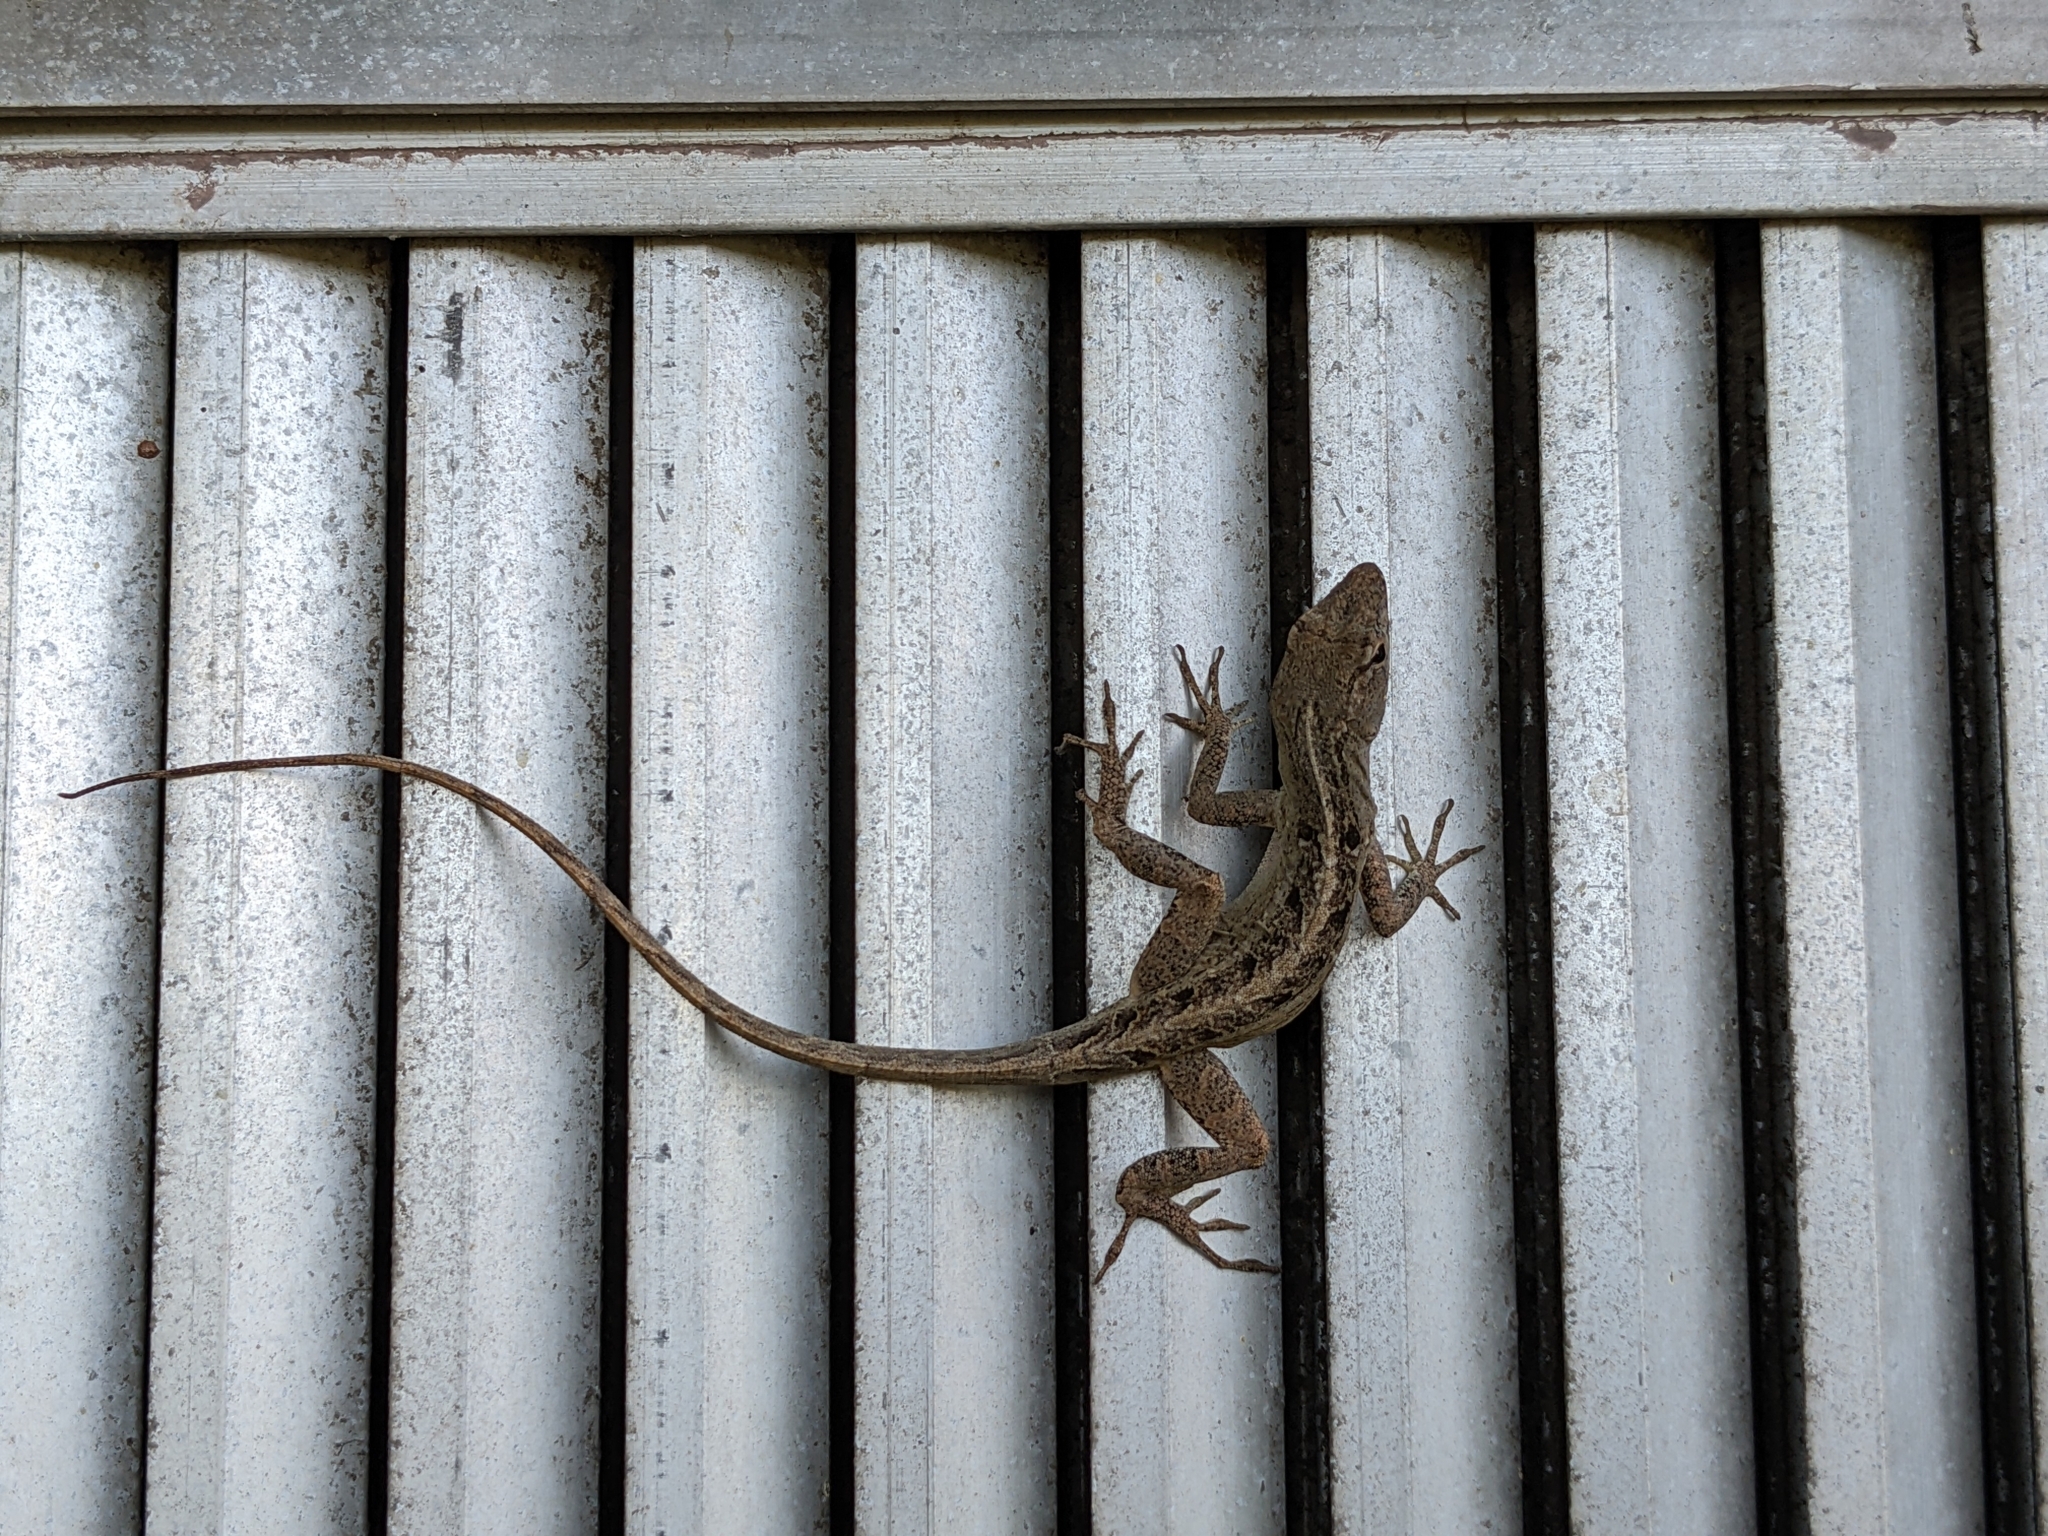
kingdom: Animalia
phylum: Chordata
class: Squamata
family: Dactyloidae
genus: Anolis
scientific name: Anolis sagrei
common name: Brown anole
